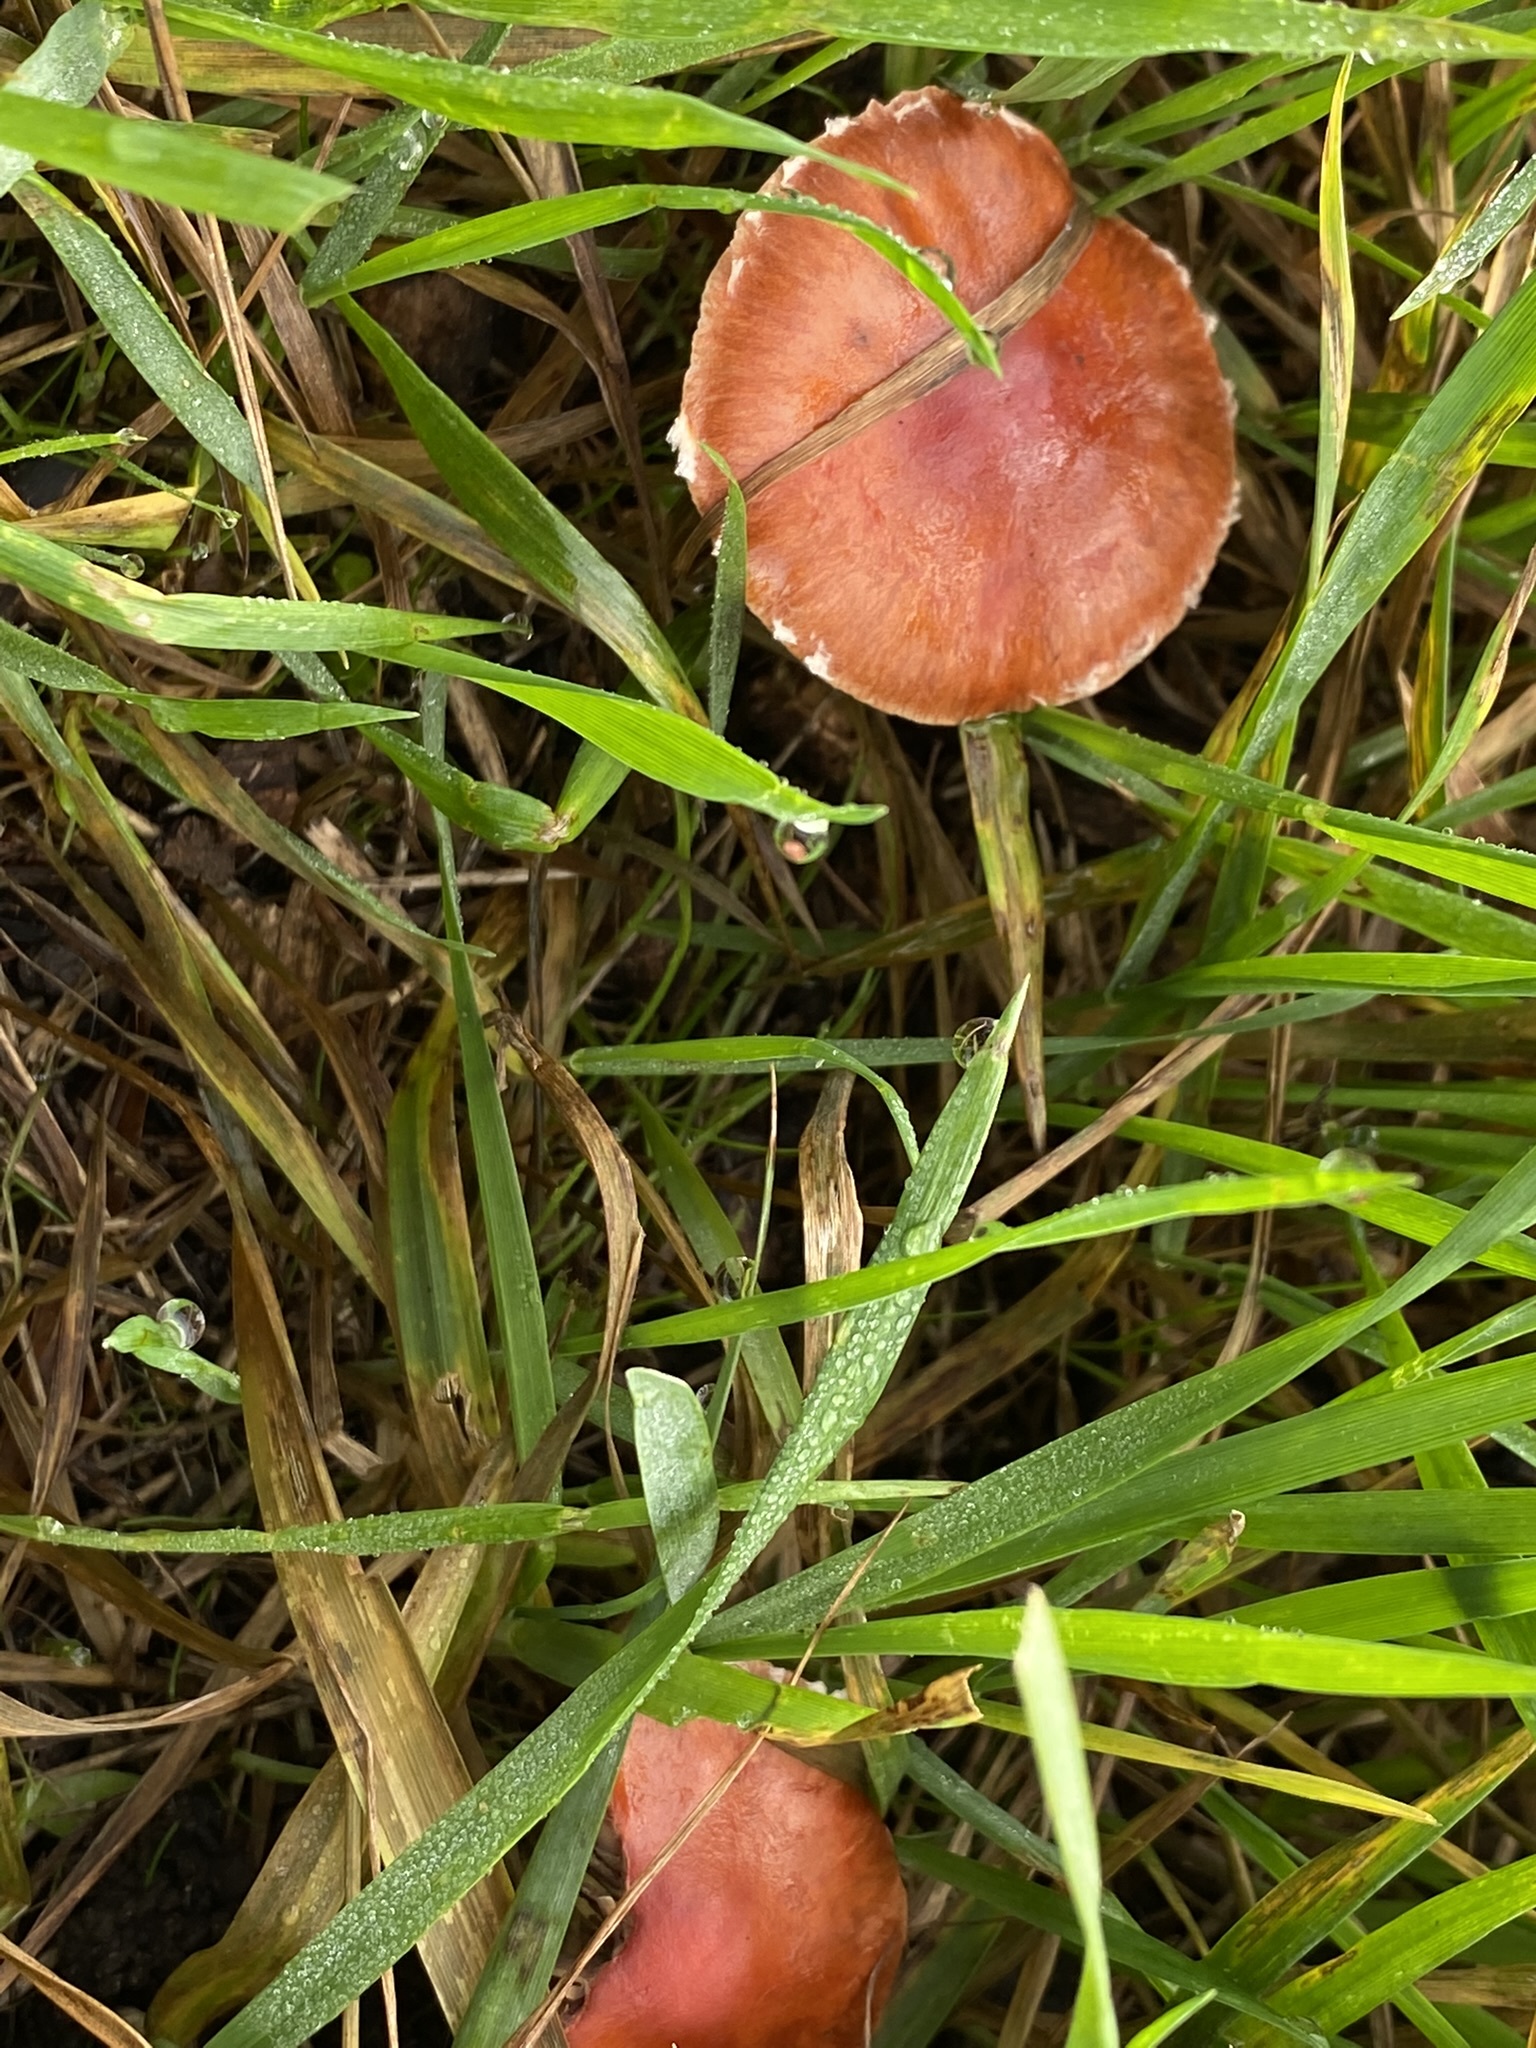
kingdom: Fungi
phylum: Basidiomycota
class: Agaricomycetes
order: Agaricales
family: Strophariaceae
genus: Leratiomyces
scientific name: Leratiomyces ceres
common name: Redlead roundhead
